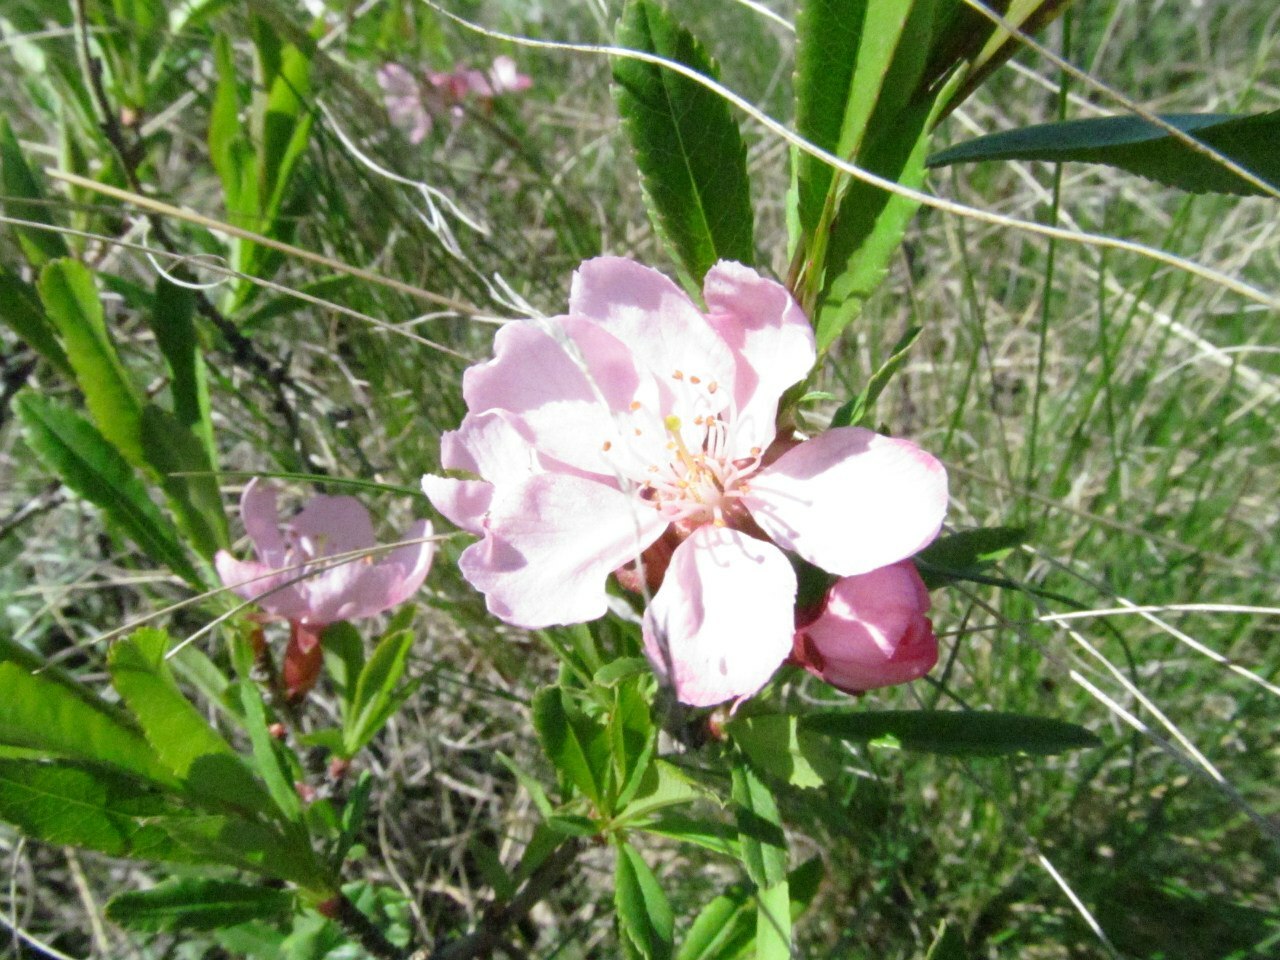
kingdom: Plantae
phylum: Tracheophyta
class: Magnoliopsida
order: Rosales
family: Rosaceae
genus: Prunus
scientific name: Prunus tenella
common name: Dwarf russian almond
